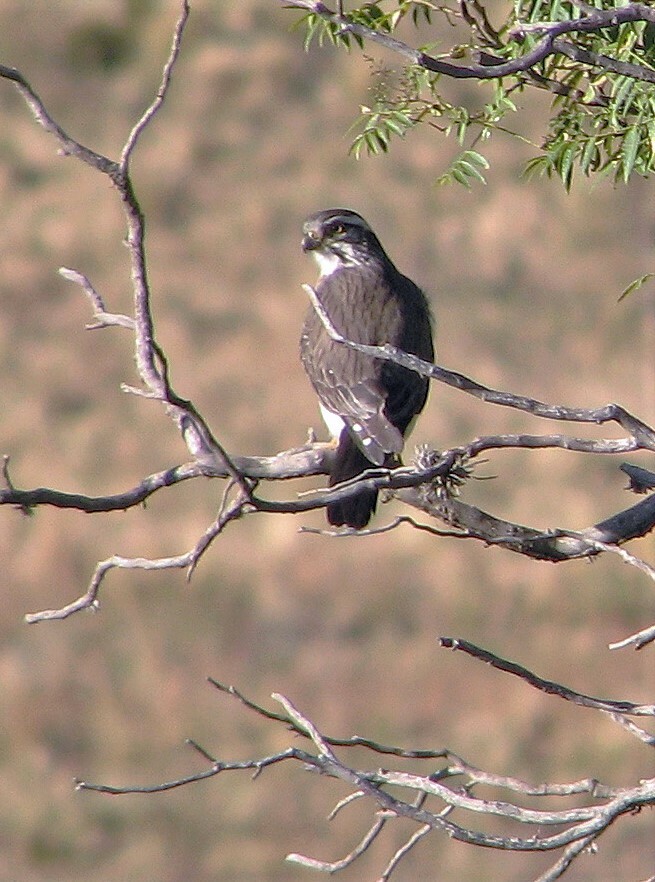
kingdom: Animalia
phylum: Chordata
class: Aves
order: Falconiformes
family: Falconidae
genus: Spiziapteryx
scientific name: Spiziapteryx circumcincta
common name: Spot-winged falconet
